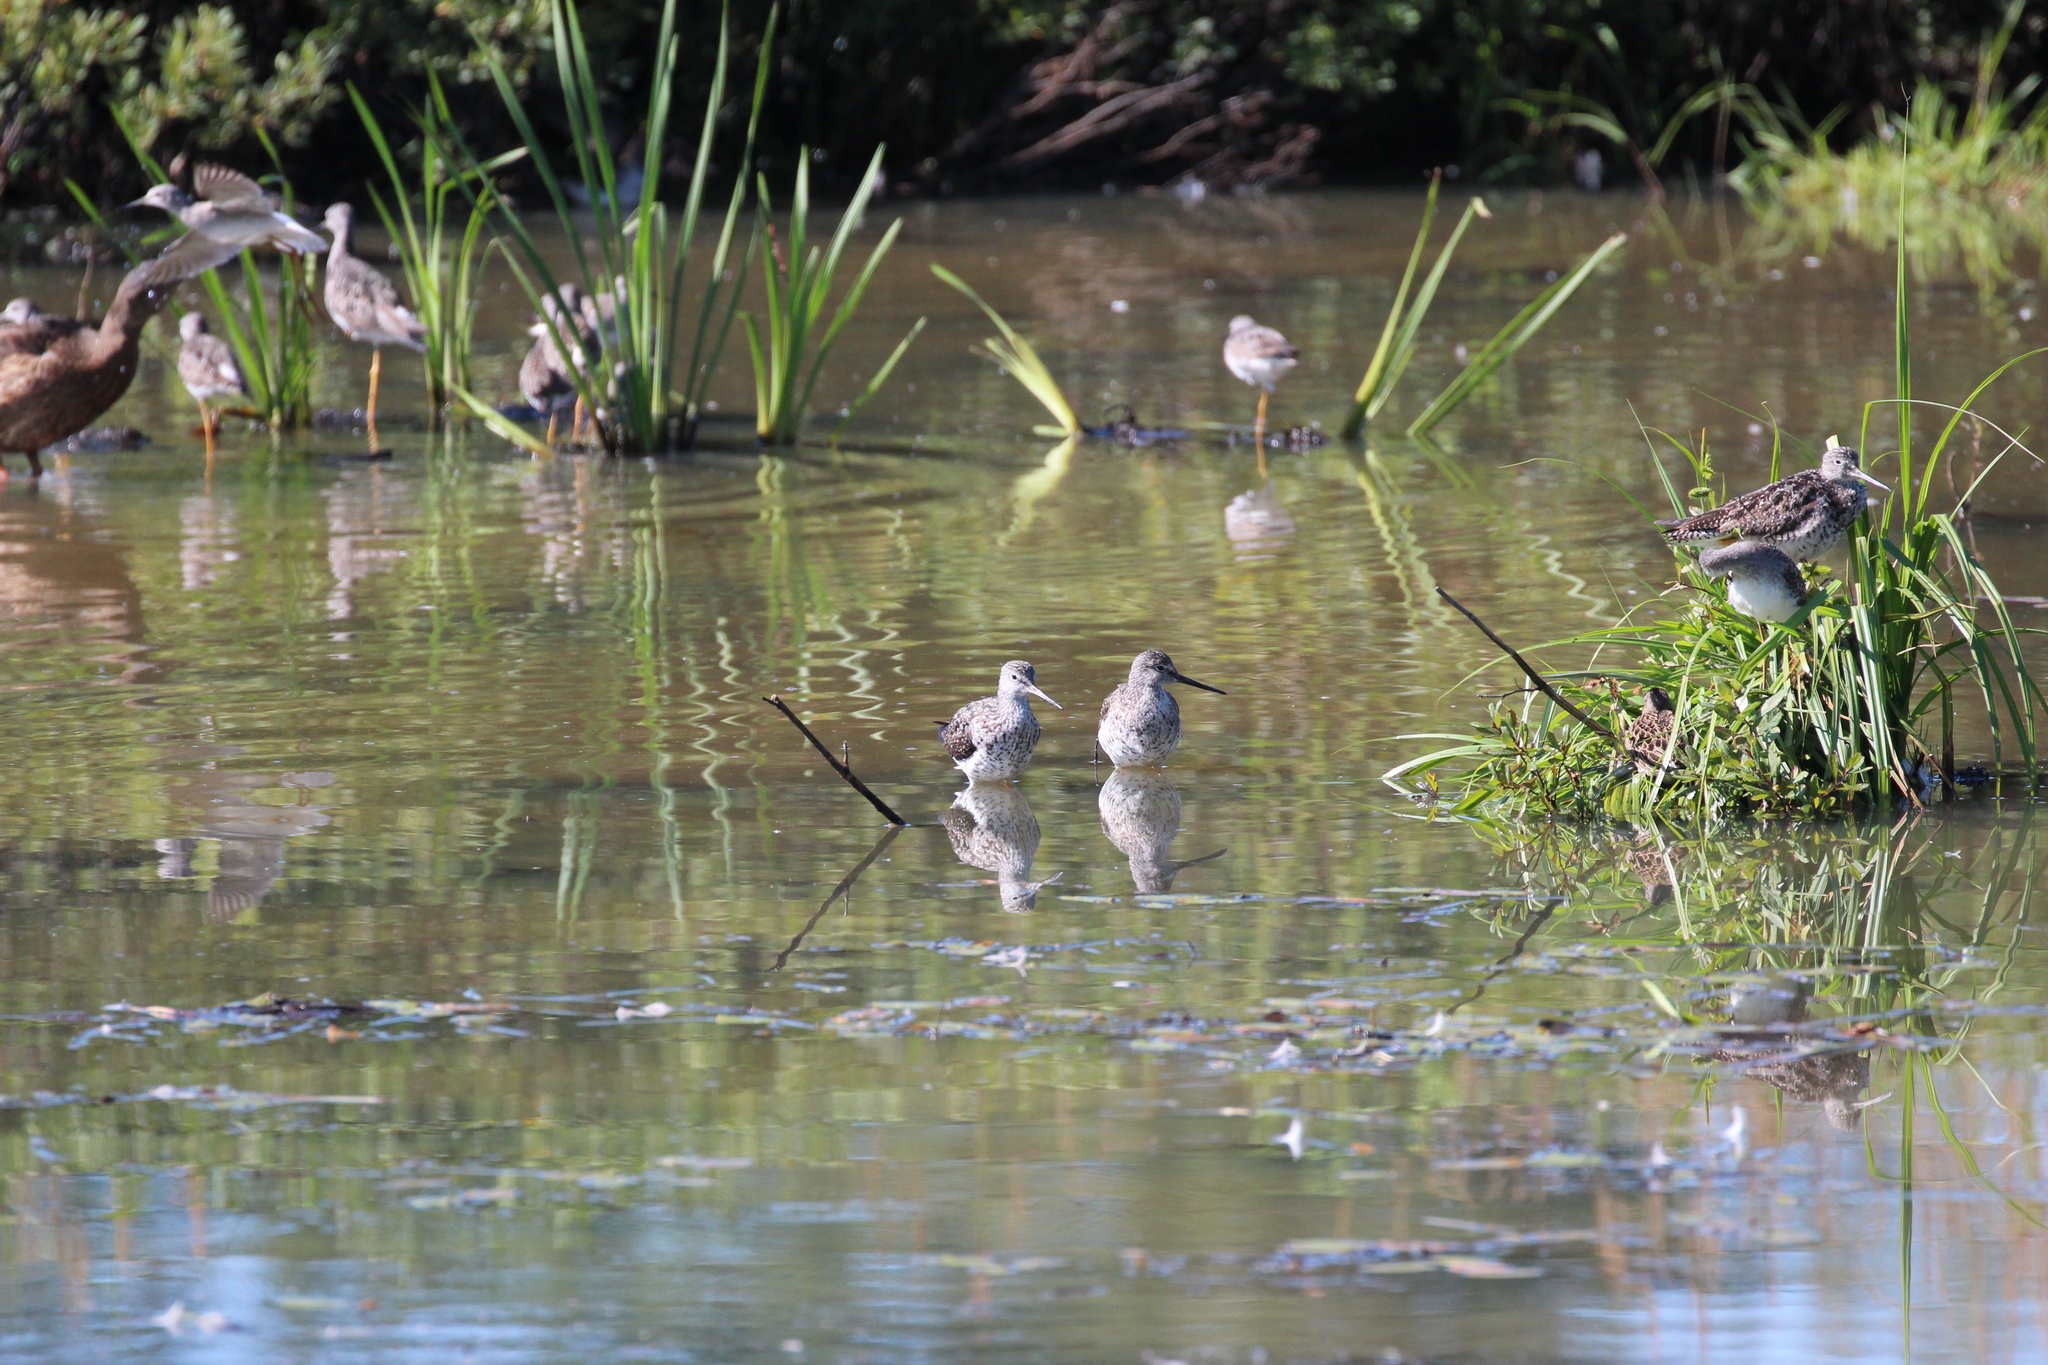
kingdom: Animalia
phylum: Chordata
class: Aves
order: Charadriiformes
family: Scolopacidae
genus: Tringa
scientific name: Tringa melanoleuca
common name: Greater yellowlegs
